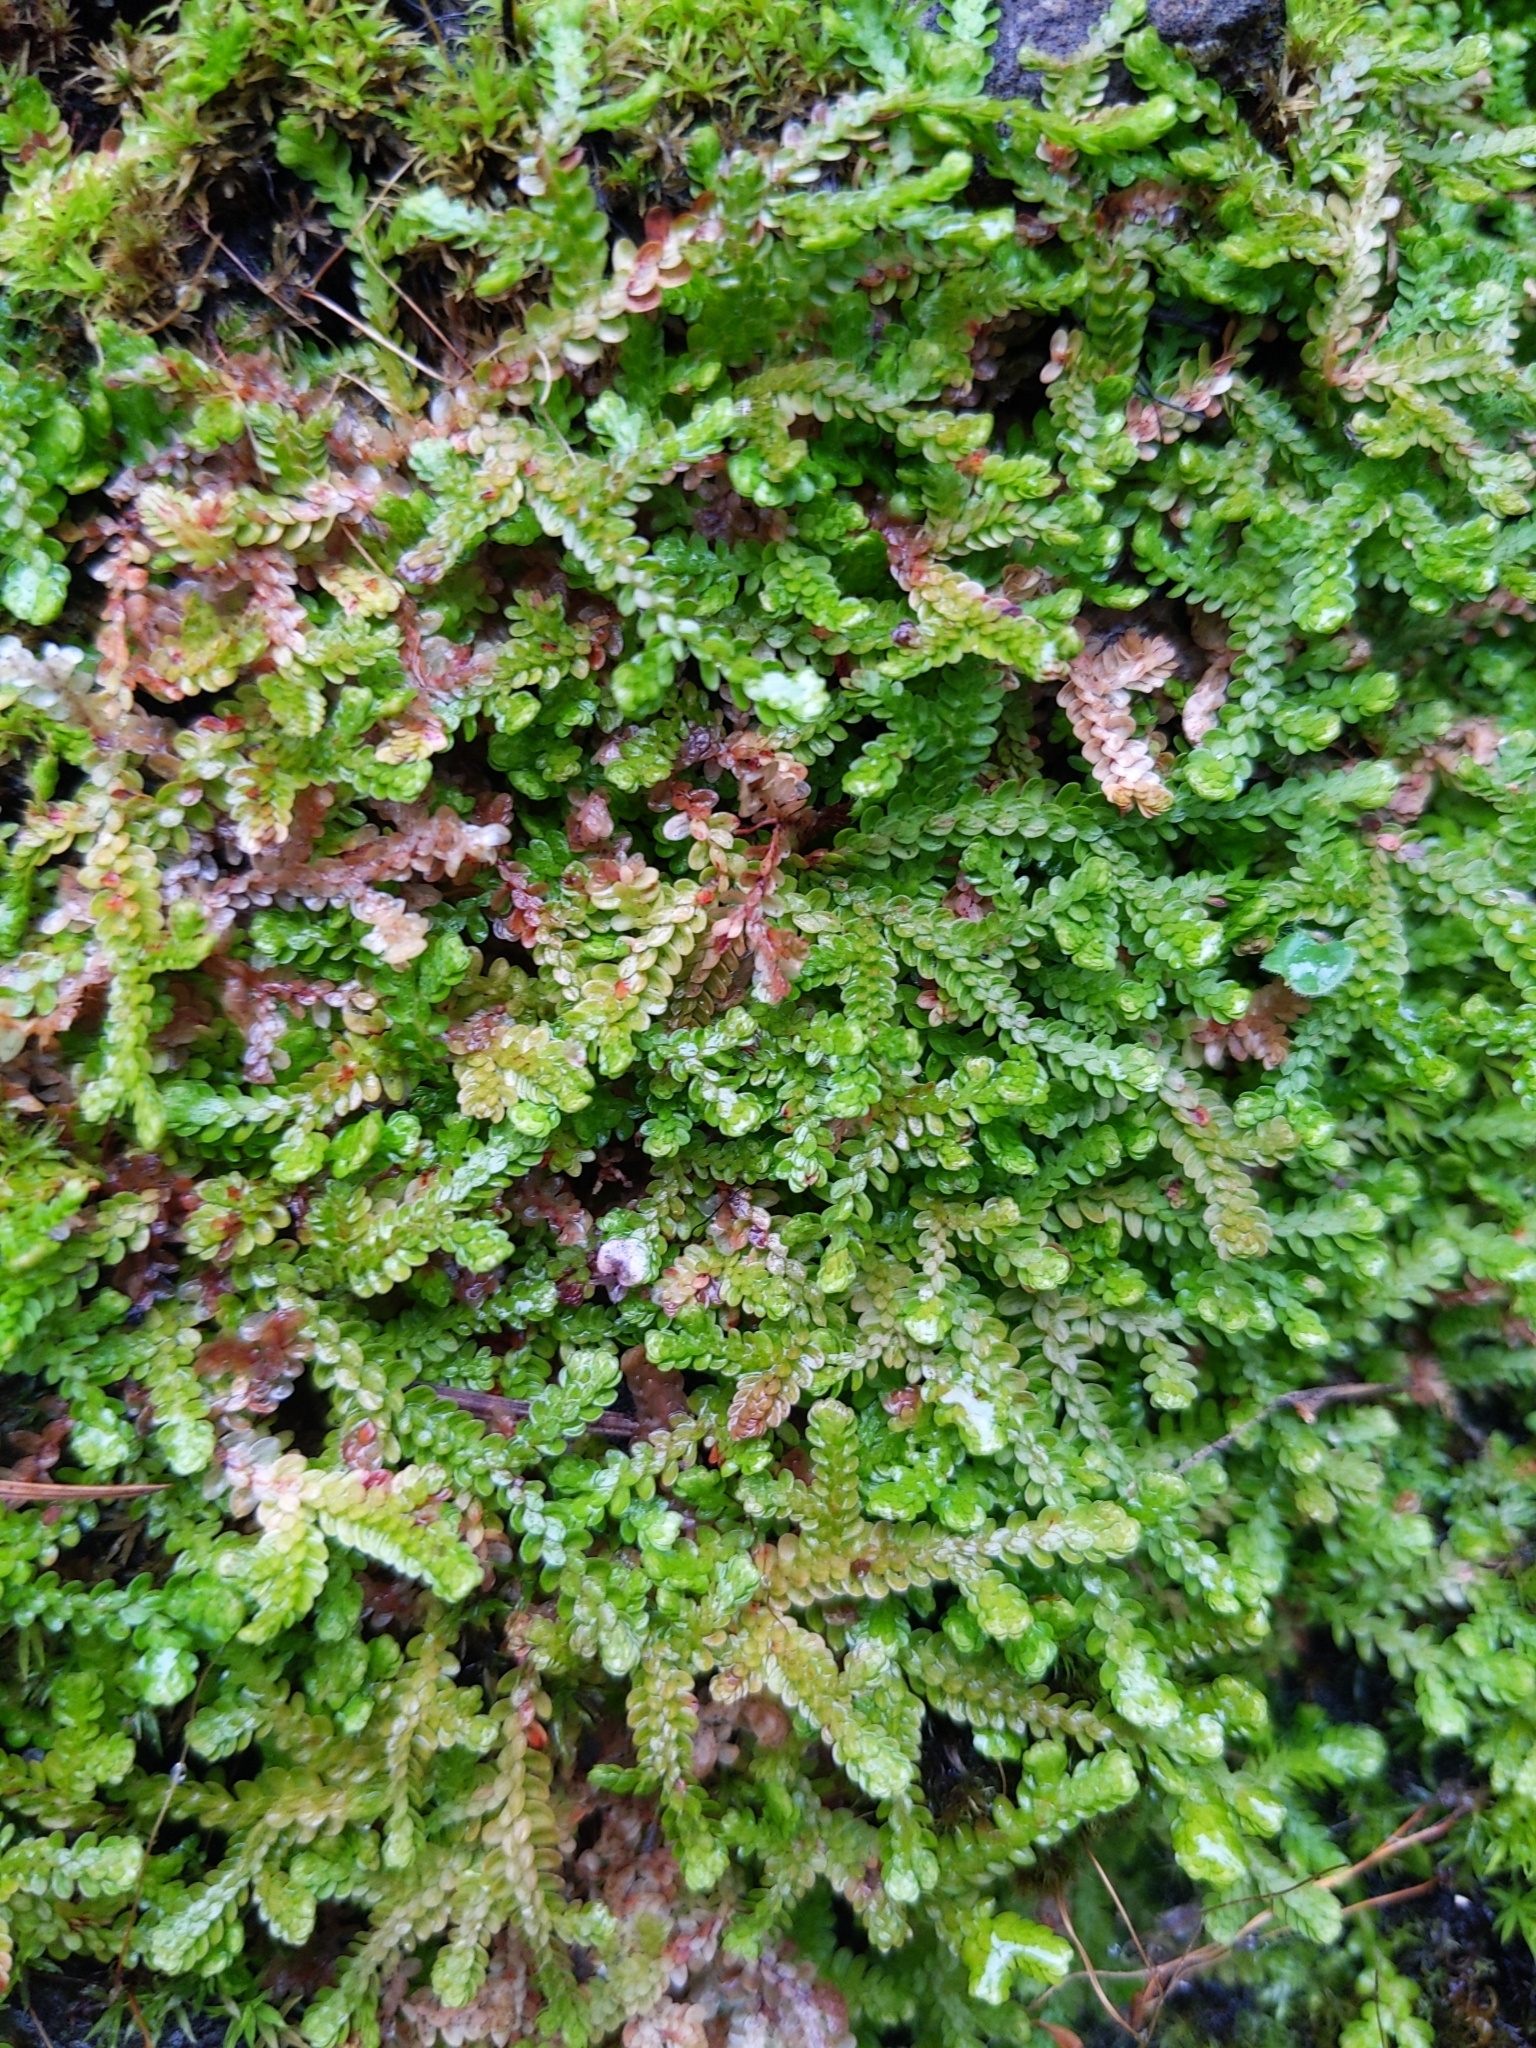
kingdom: Plantae
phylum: Tracheophyta
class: Lycopodiopsida
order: Selaginellales
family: Selaginellaceae
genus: Selaginella
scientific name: Selaginella douglasii
